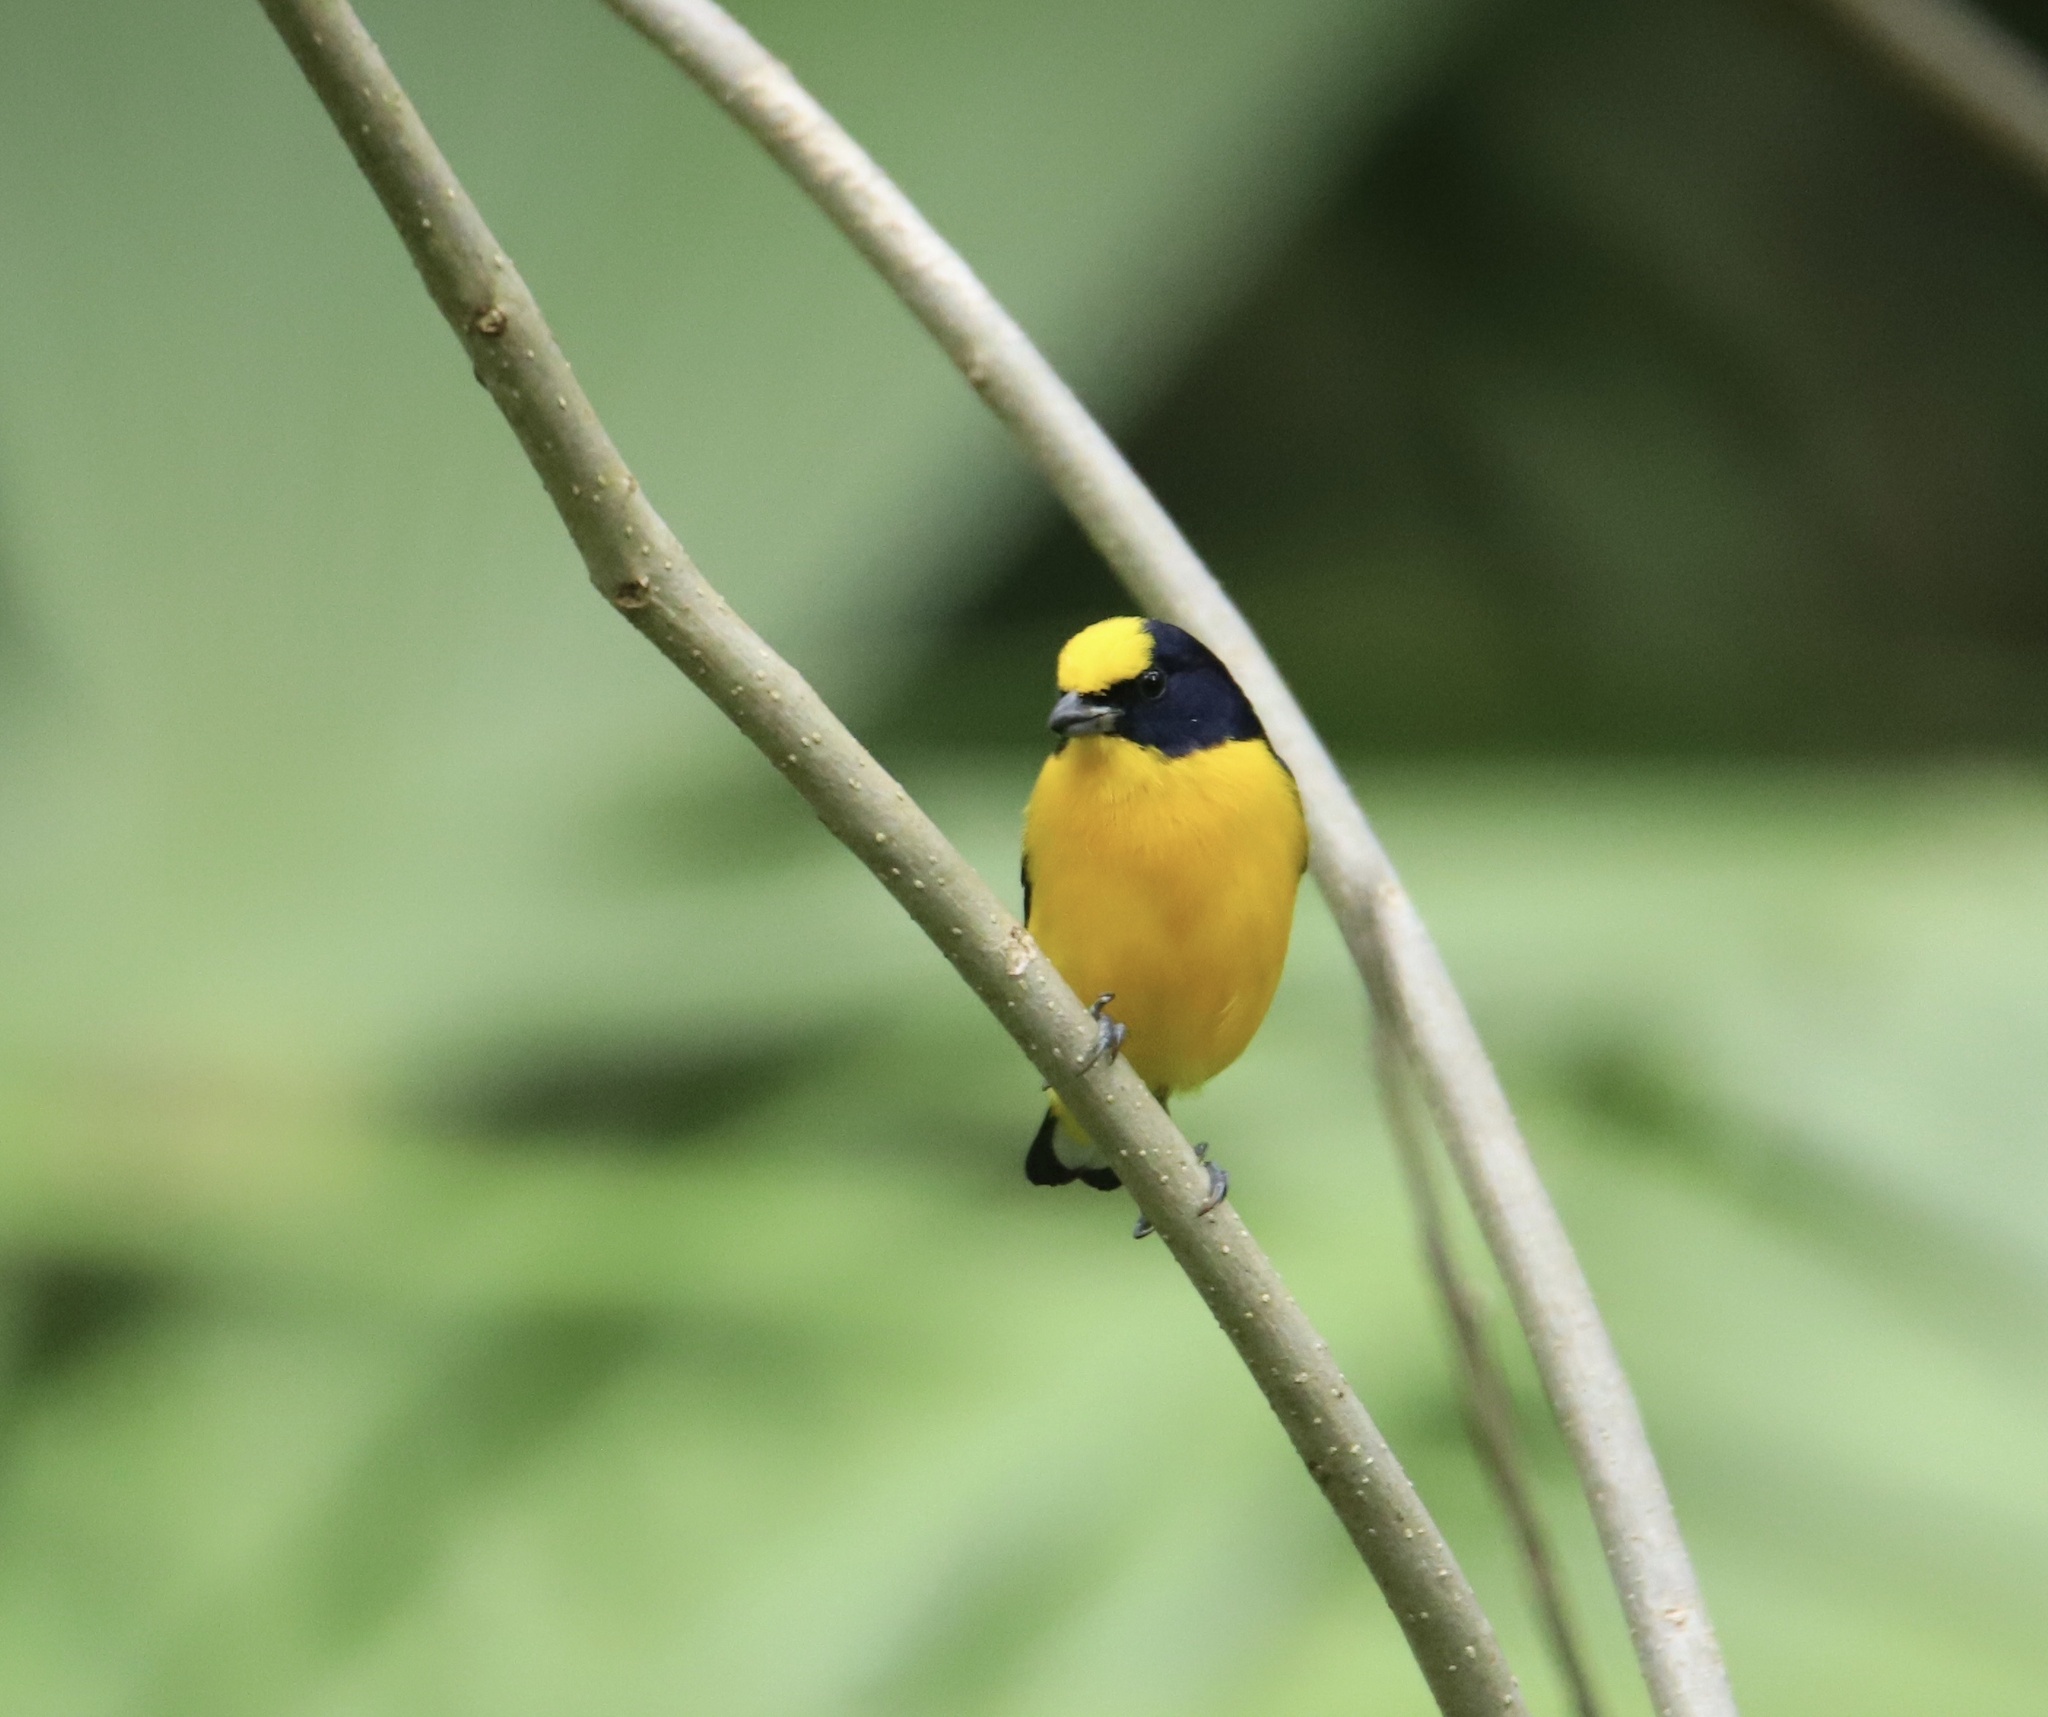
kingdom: Animalia
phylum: Chordata
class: Aves
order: Passeriformes
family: Fringillidae
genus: Euphonia
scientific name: Euphonia laniirostris
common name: Thick-billed euphonia
